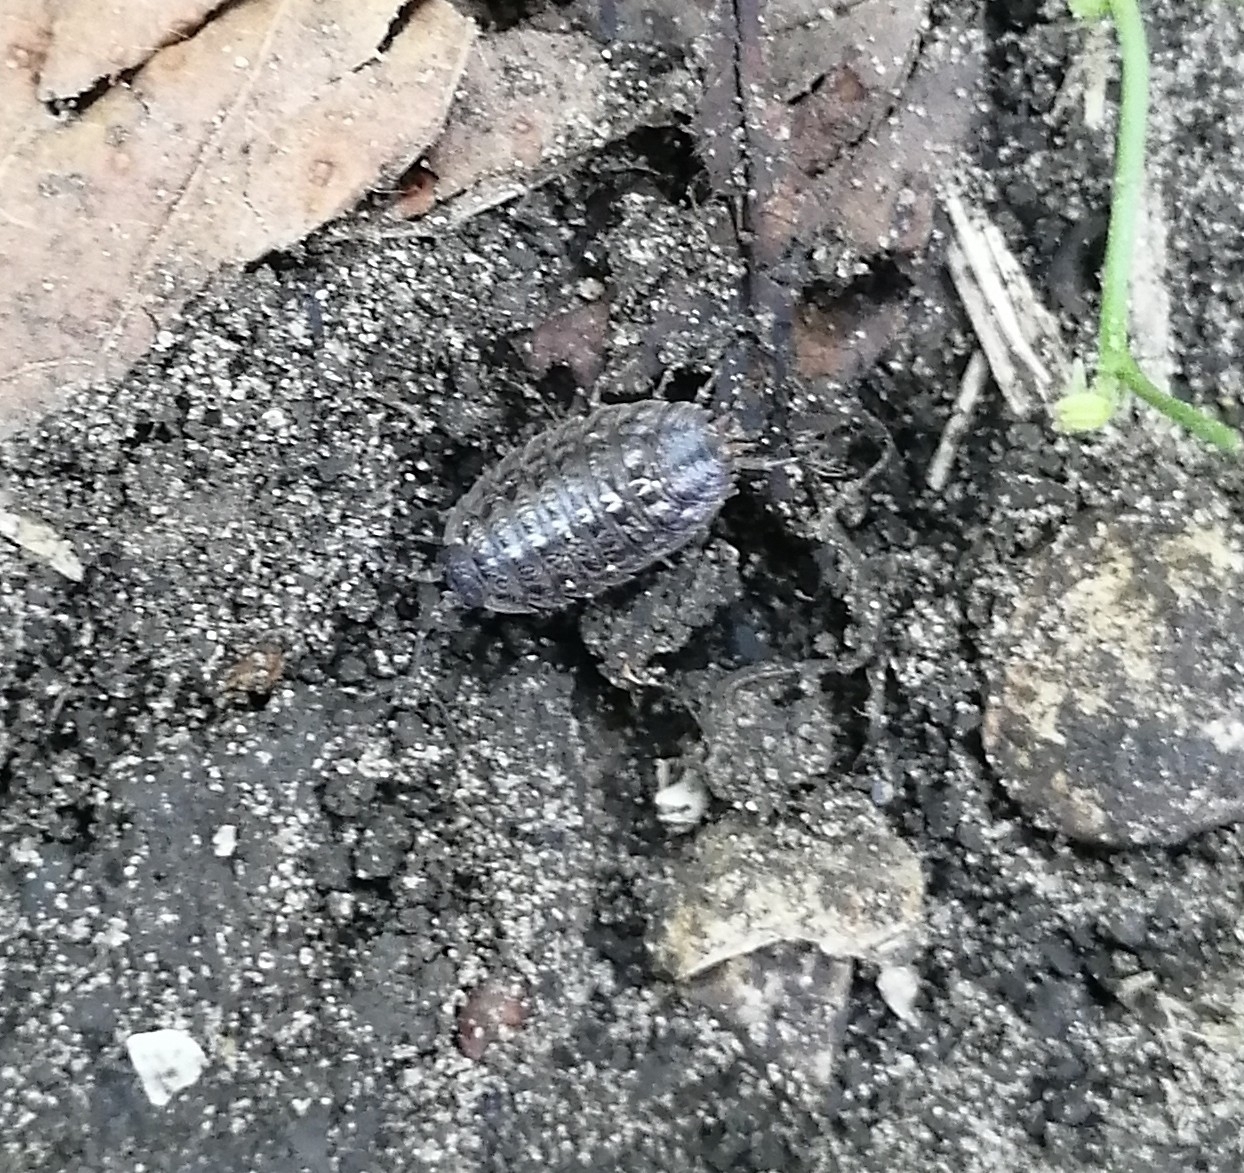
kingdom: Animalia
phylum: Arthropoda
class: Malacostraca
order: Isopoda
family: Trachelipodidae
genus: Trachelipus
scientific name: Trachelipus razzautii
